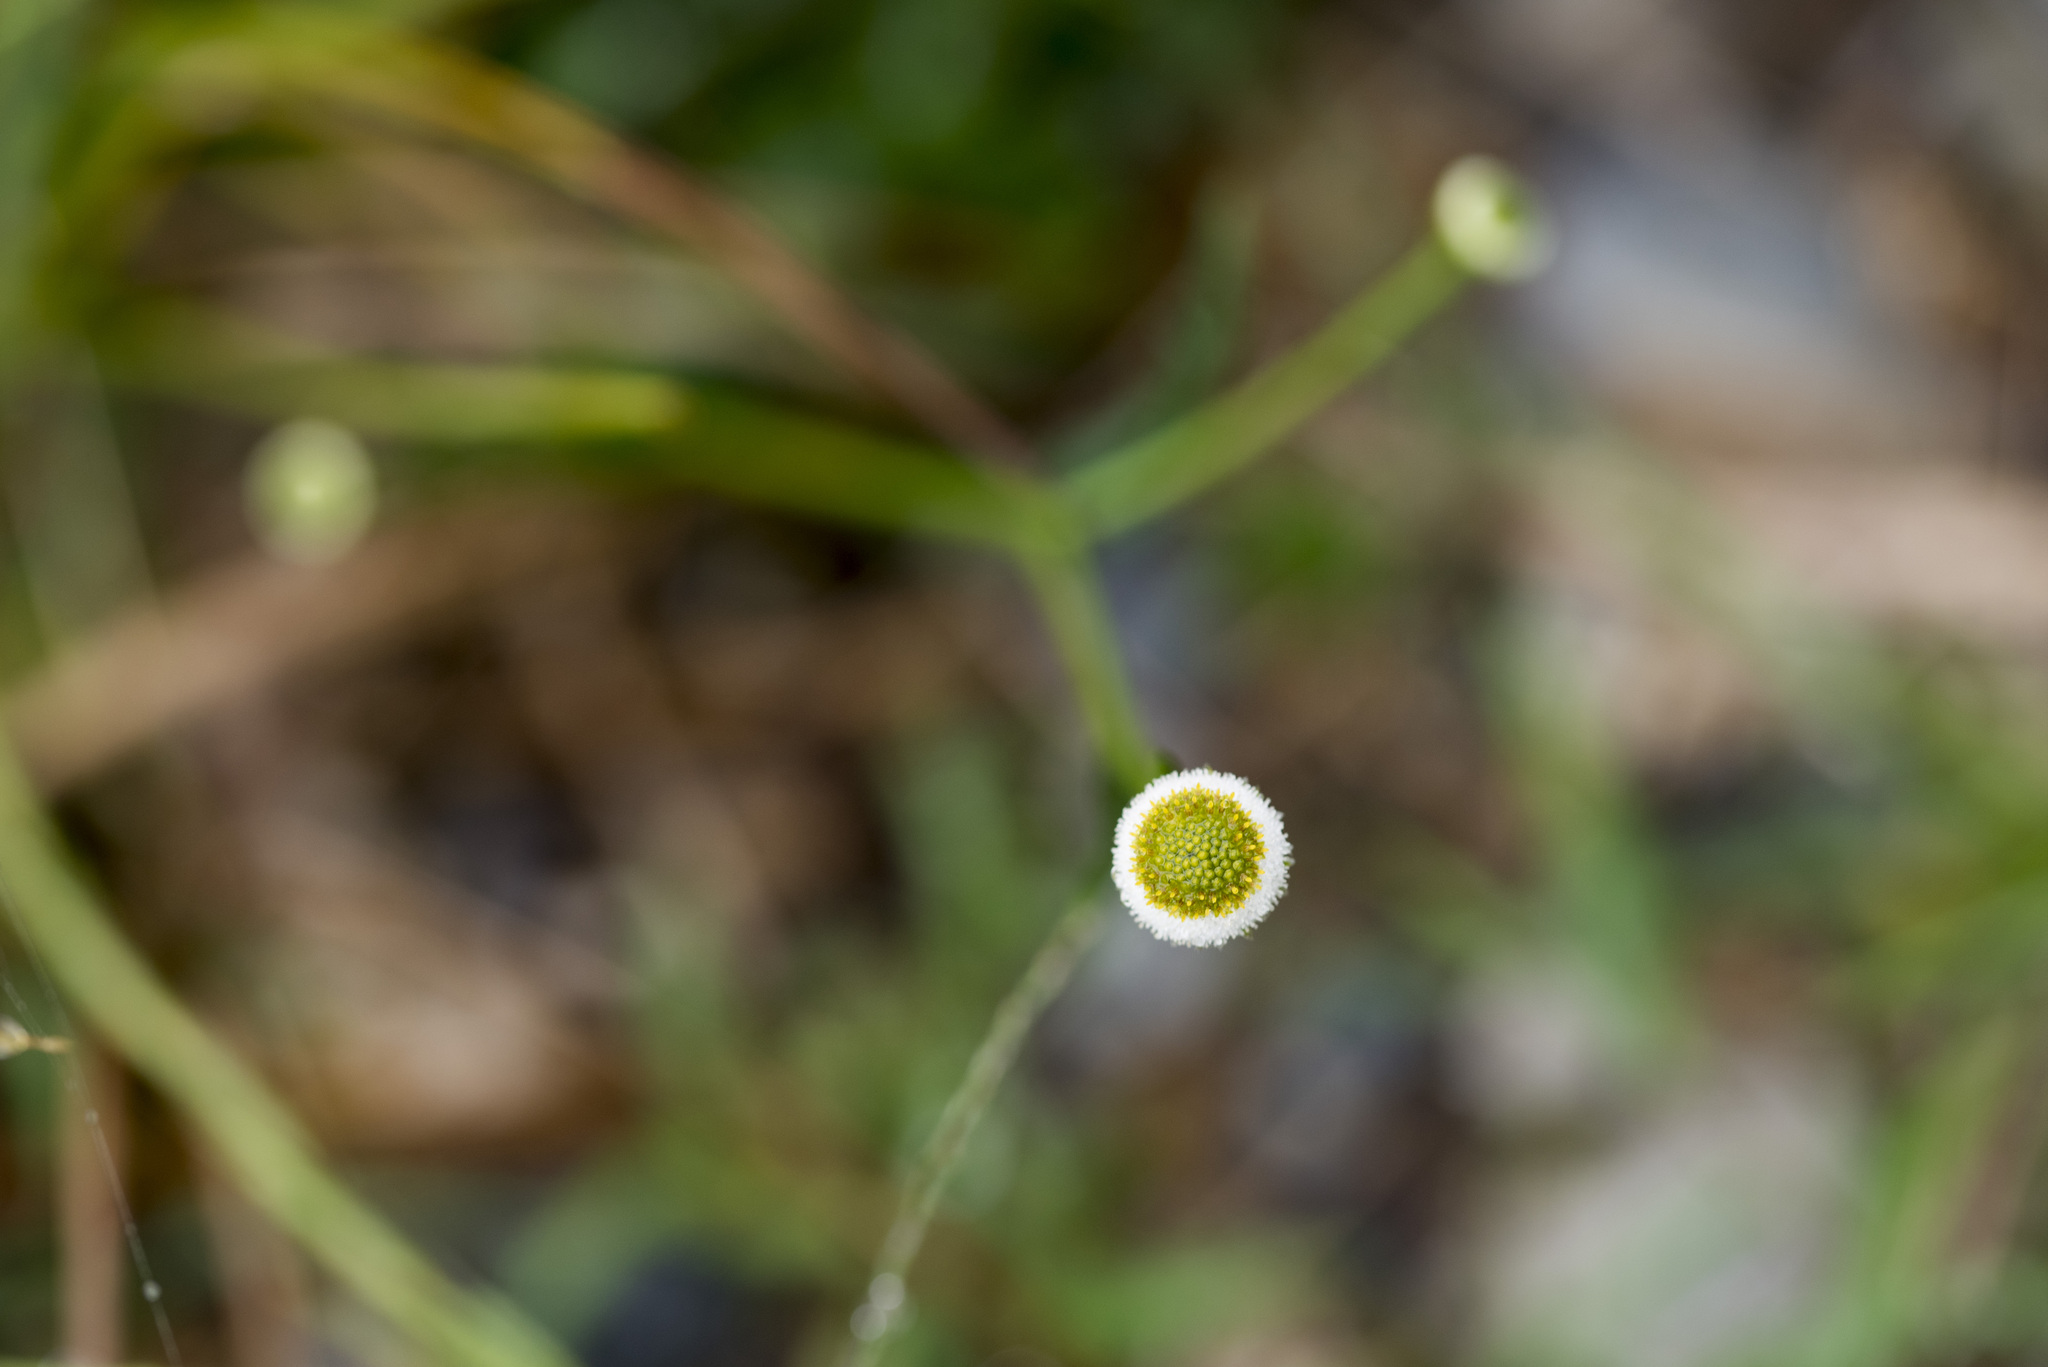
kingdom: Plantae
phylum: Tracheophyta
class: Magnoliopsida
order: Asterales
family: Asteraceae
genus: Myriactis
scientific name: Myriactis humilis
